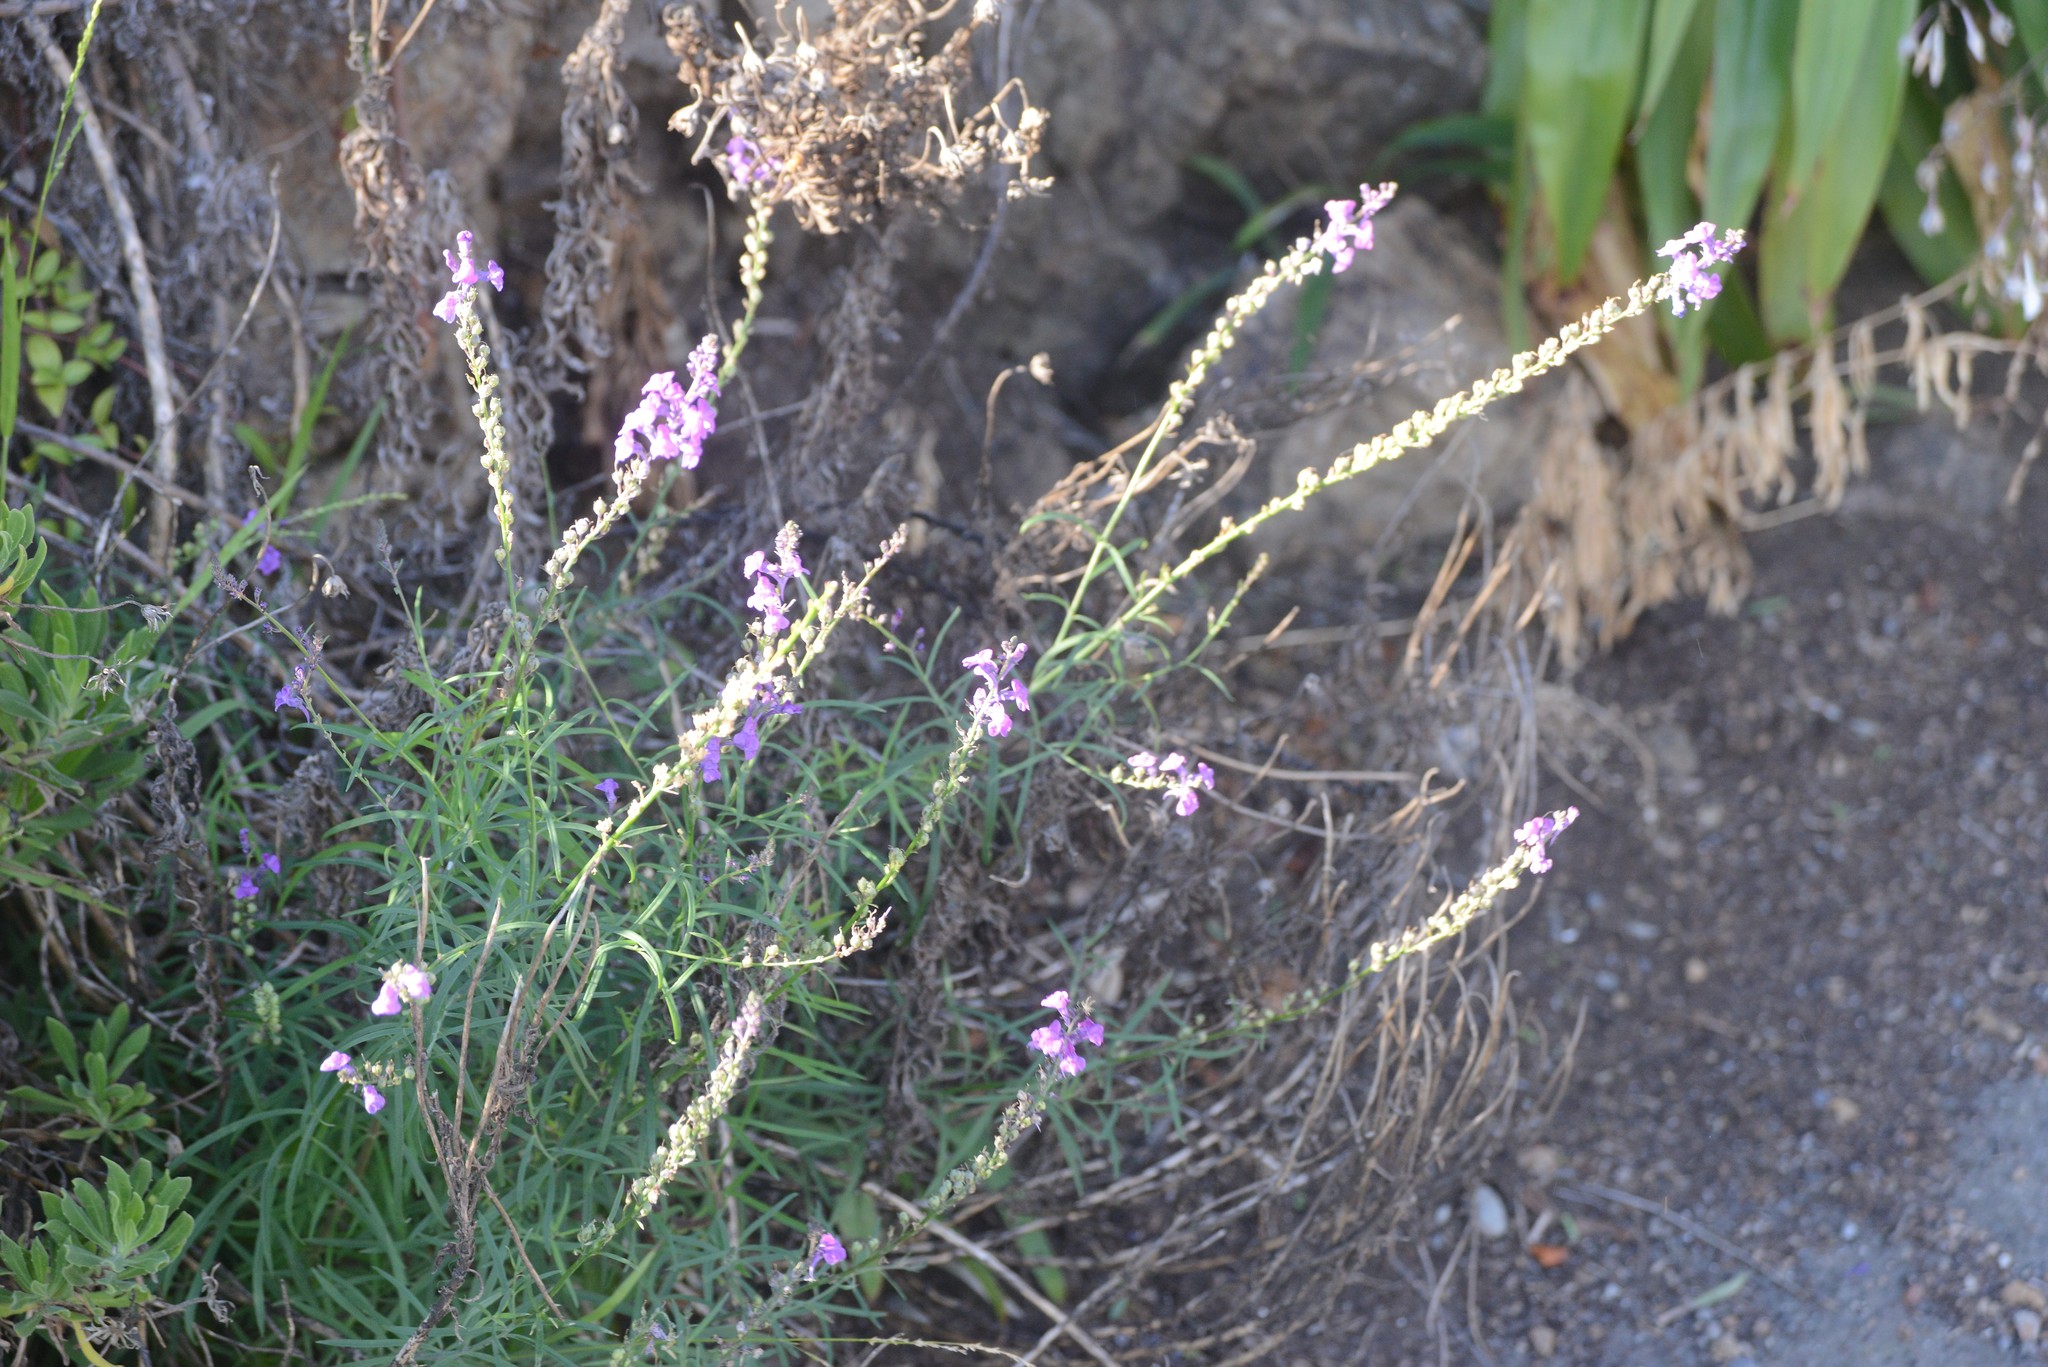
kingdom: Plantae
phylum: Tracheophyta
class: Magnoliopsida
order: Lamiales
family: Plantaginaceae
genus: Linaria
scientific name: Linaria purpurea
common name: Purple toadflax
